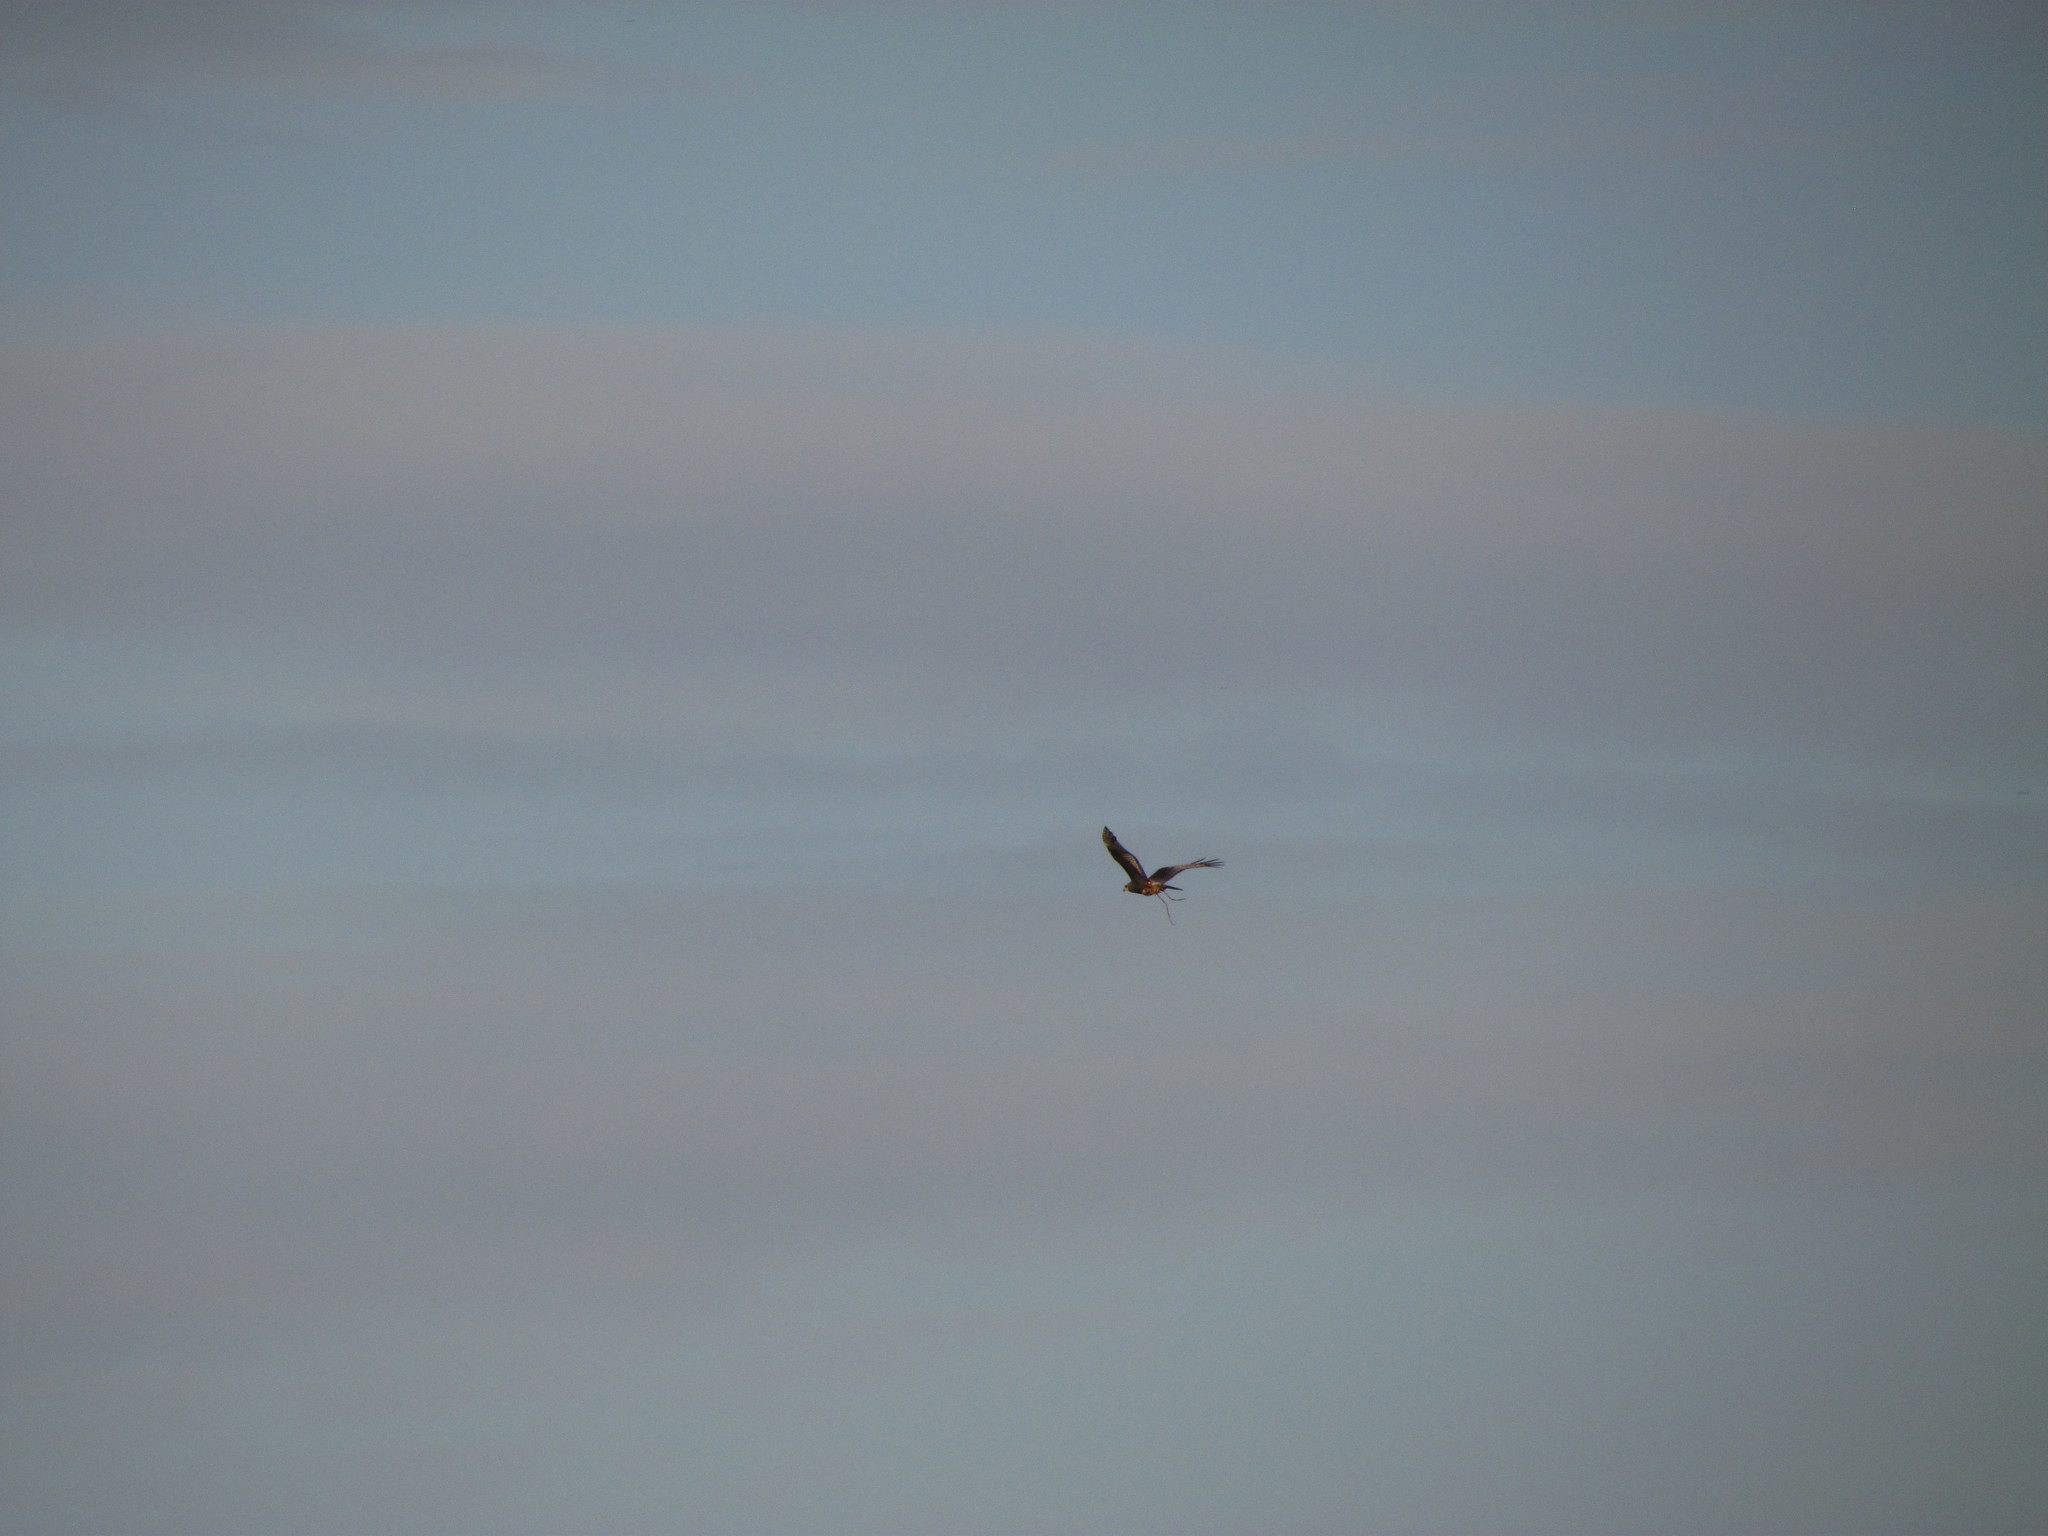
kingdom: Animalia
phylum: Chordata
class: Aves
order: Accipitriformes
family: Accipitridae
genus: Circus
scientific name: Circus buffoni
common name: Long-winged harrier
